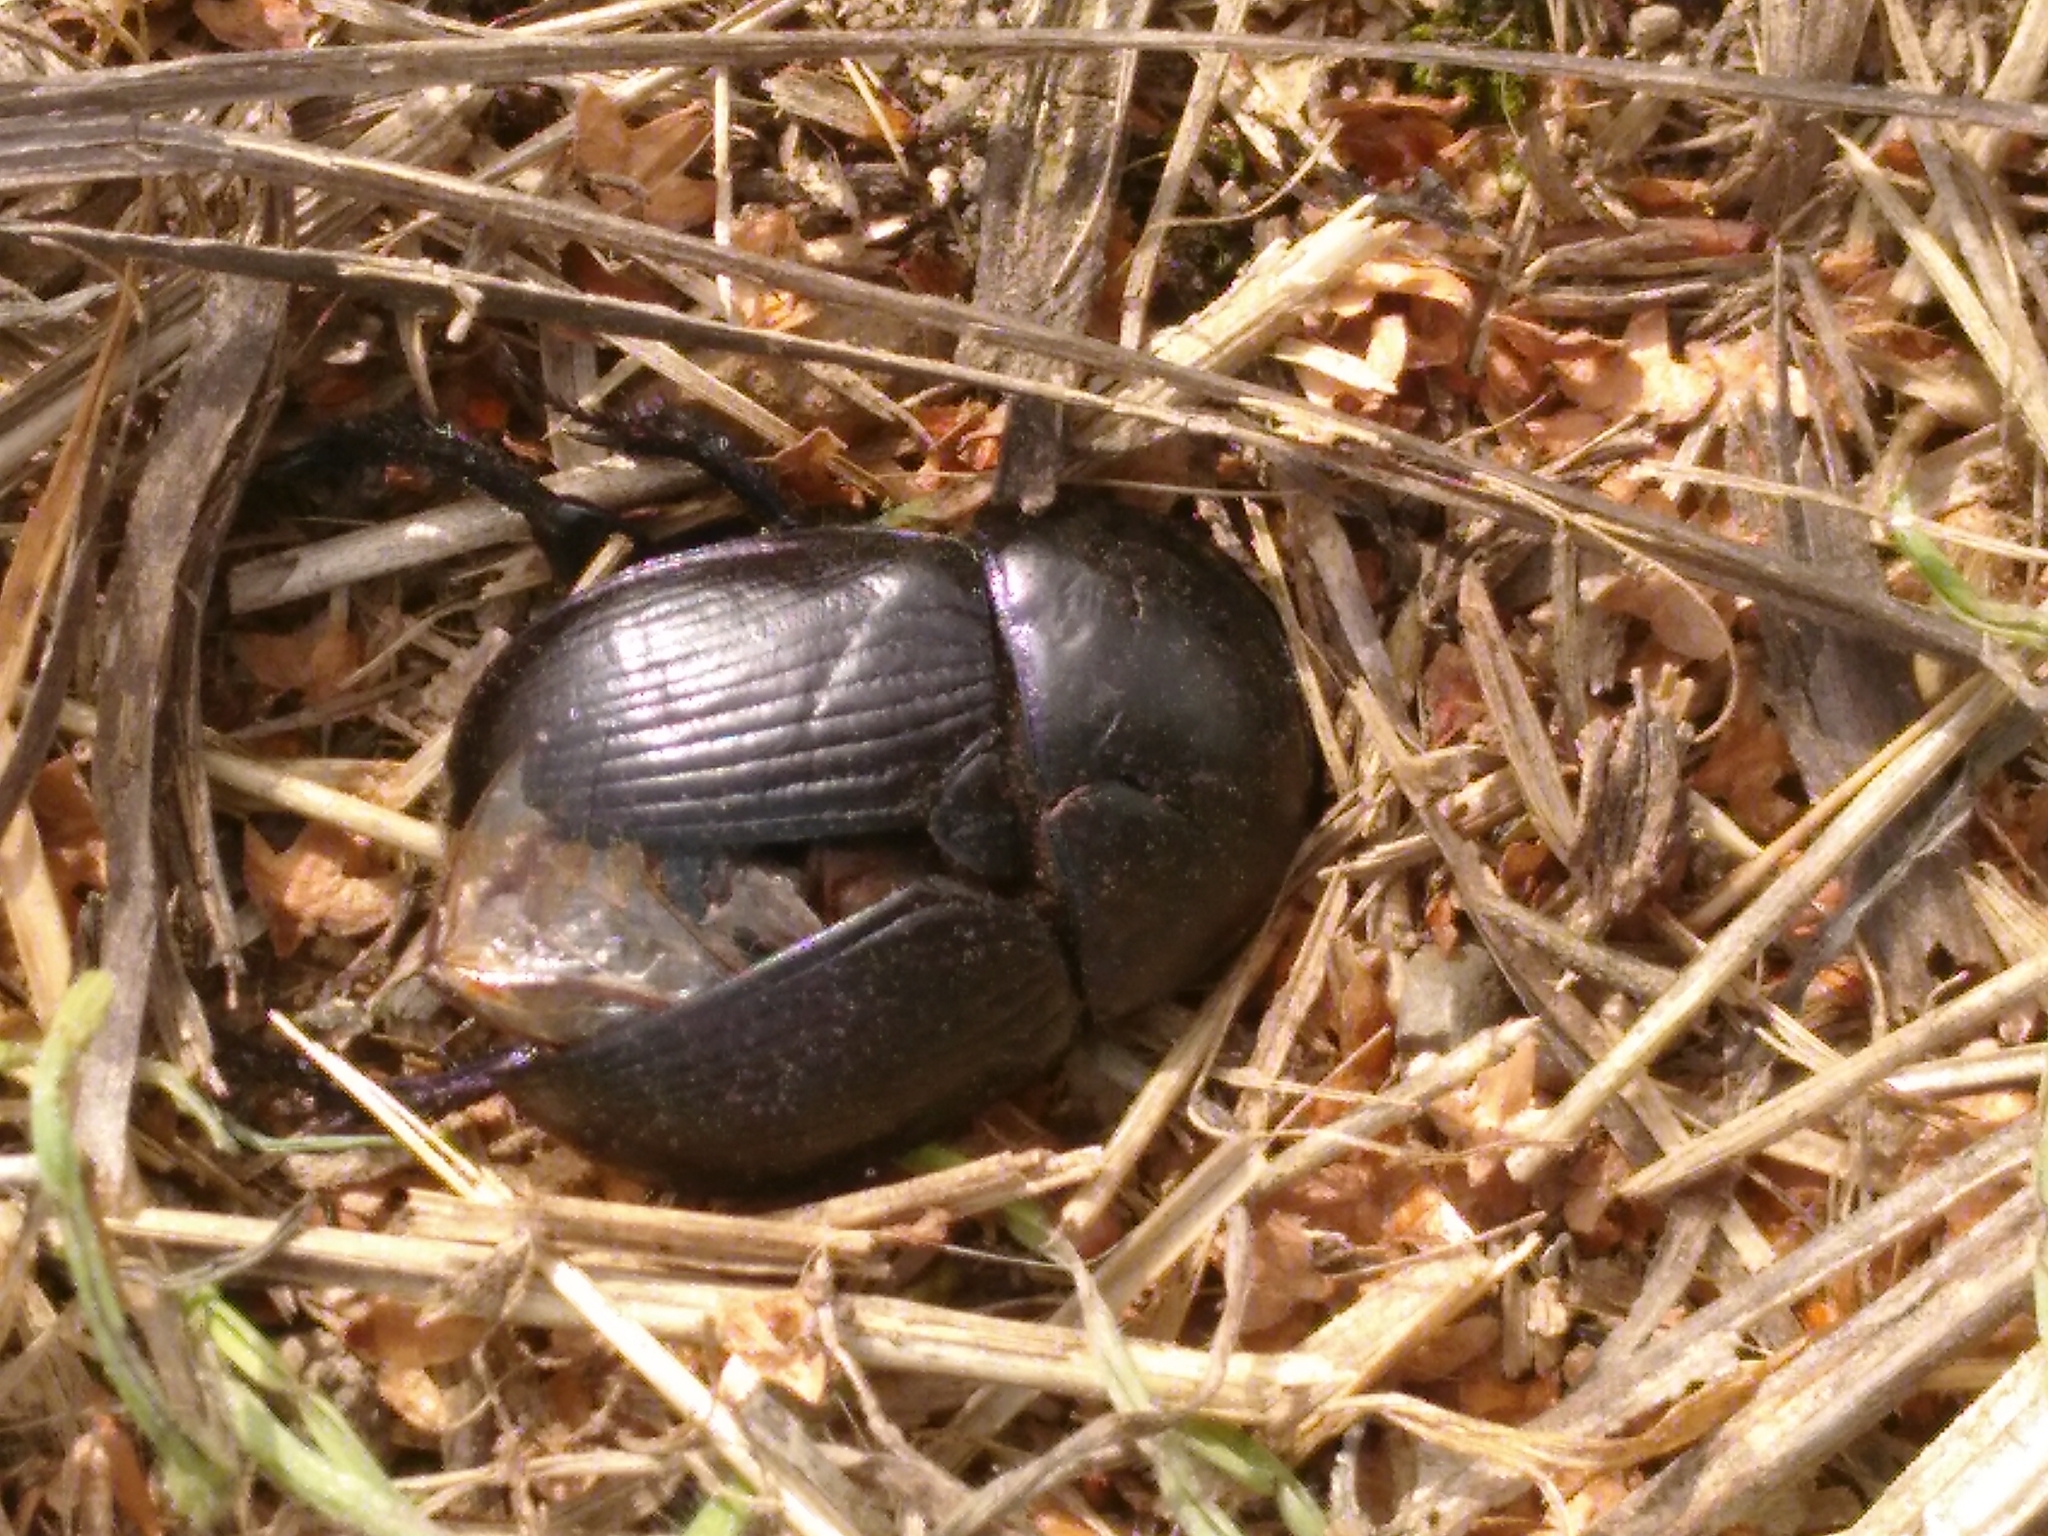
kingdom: Animalia
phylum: Arthropoda
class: Insecta
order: Coleoptera
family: Geotrupidae
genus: Geotrupes
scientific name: Geotrupes
